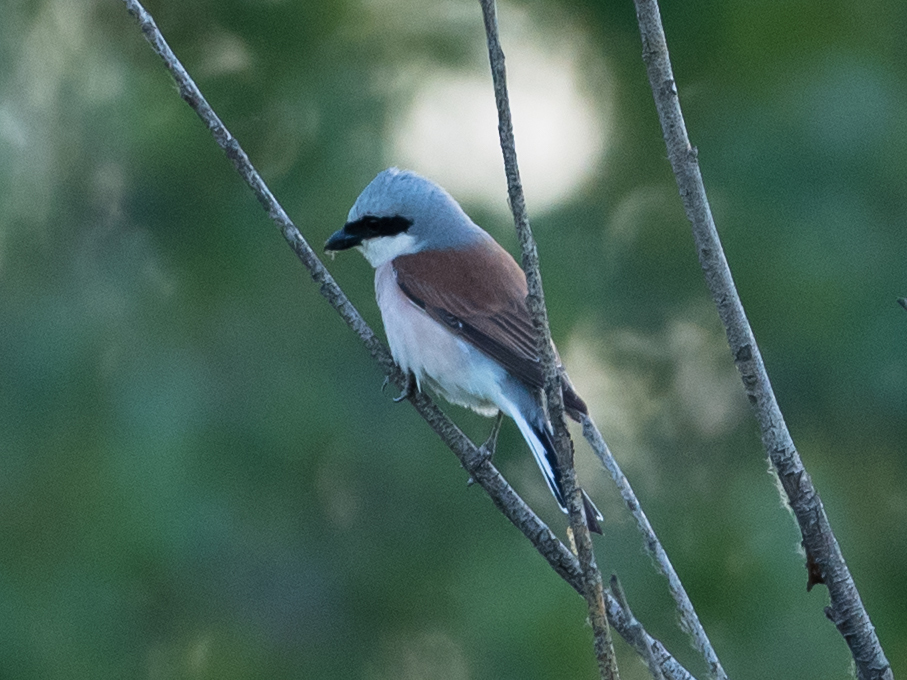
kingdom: Animalia
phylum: Chordata
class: Aves
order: Passeriformes
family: Laniidae
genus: Lanius
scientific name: Lanius collurio
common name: Red-backed shrike
